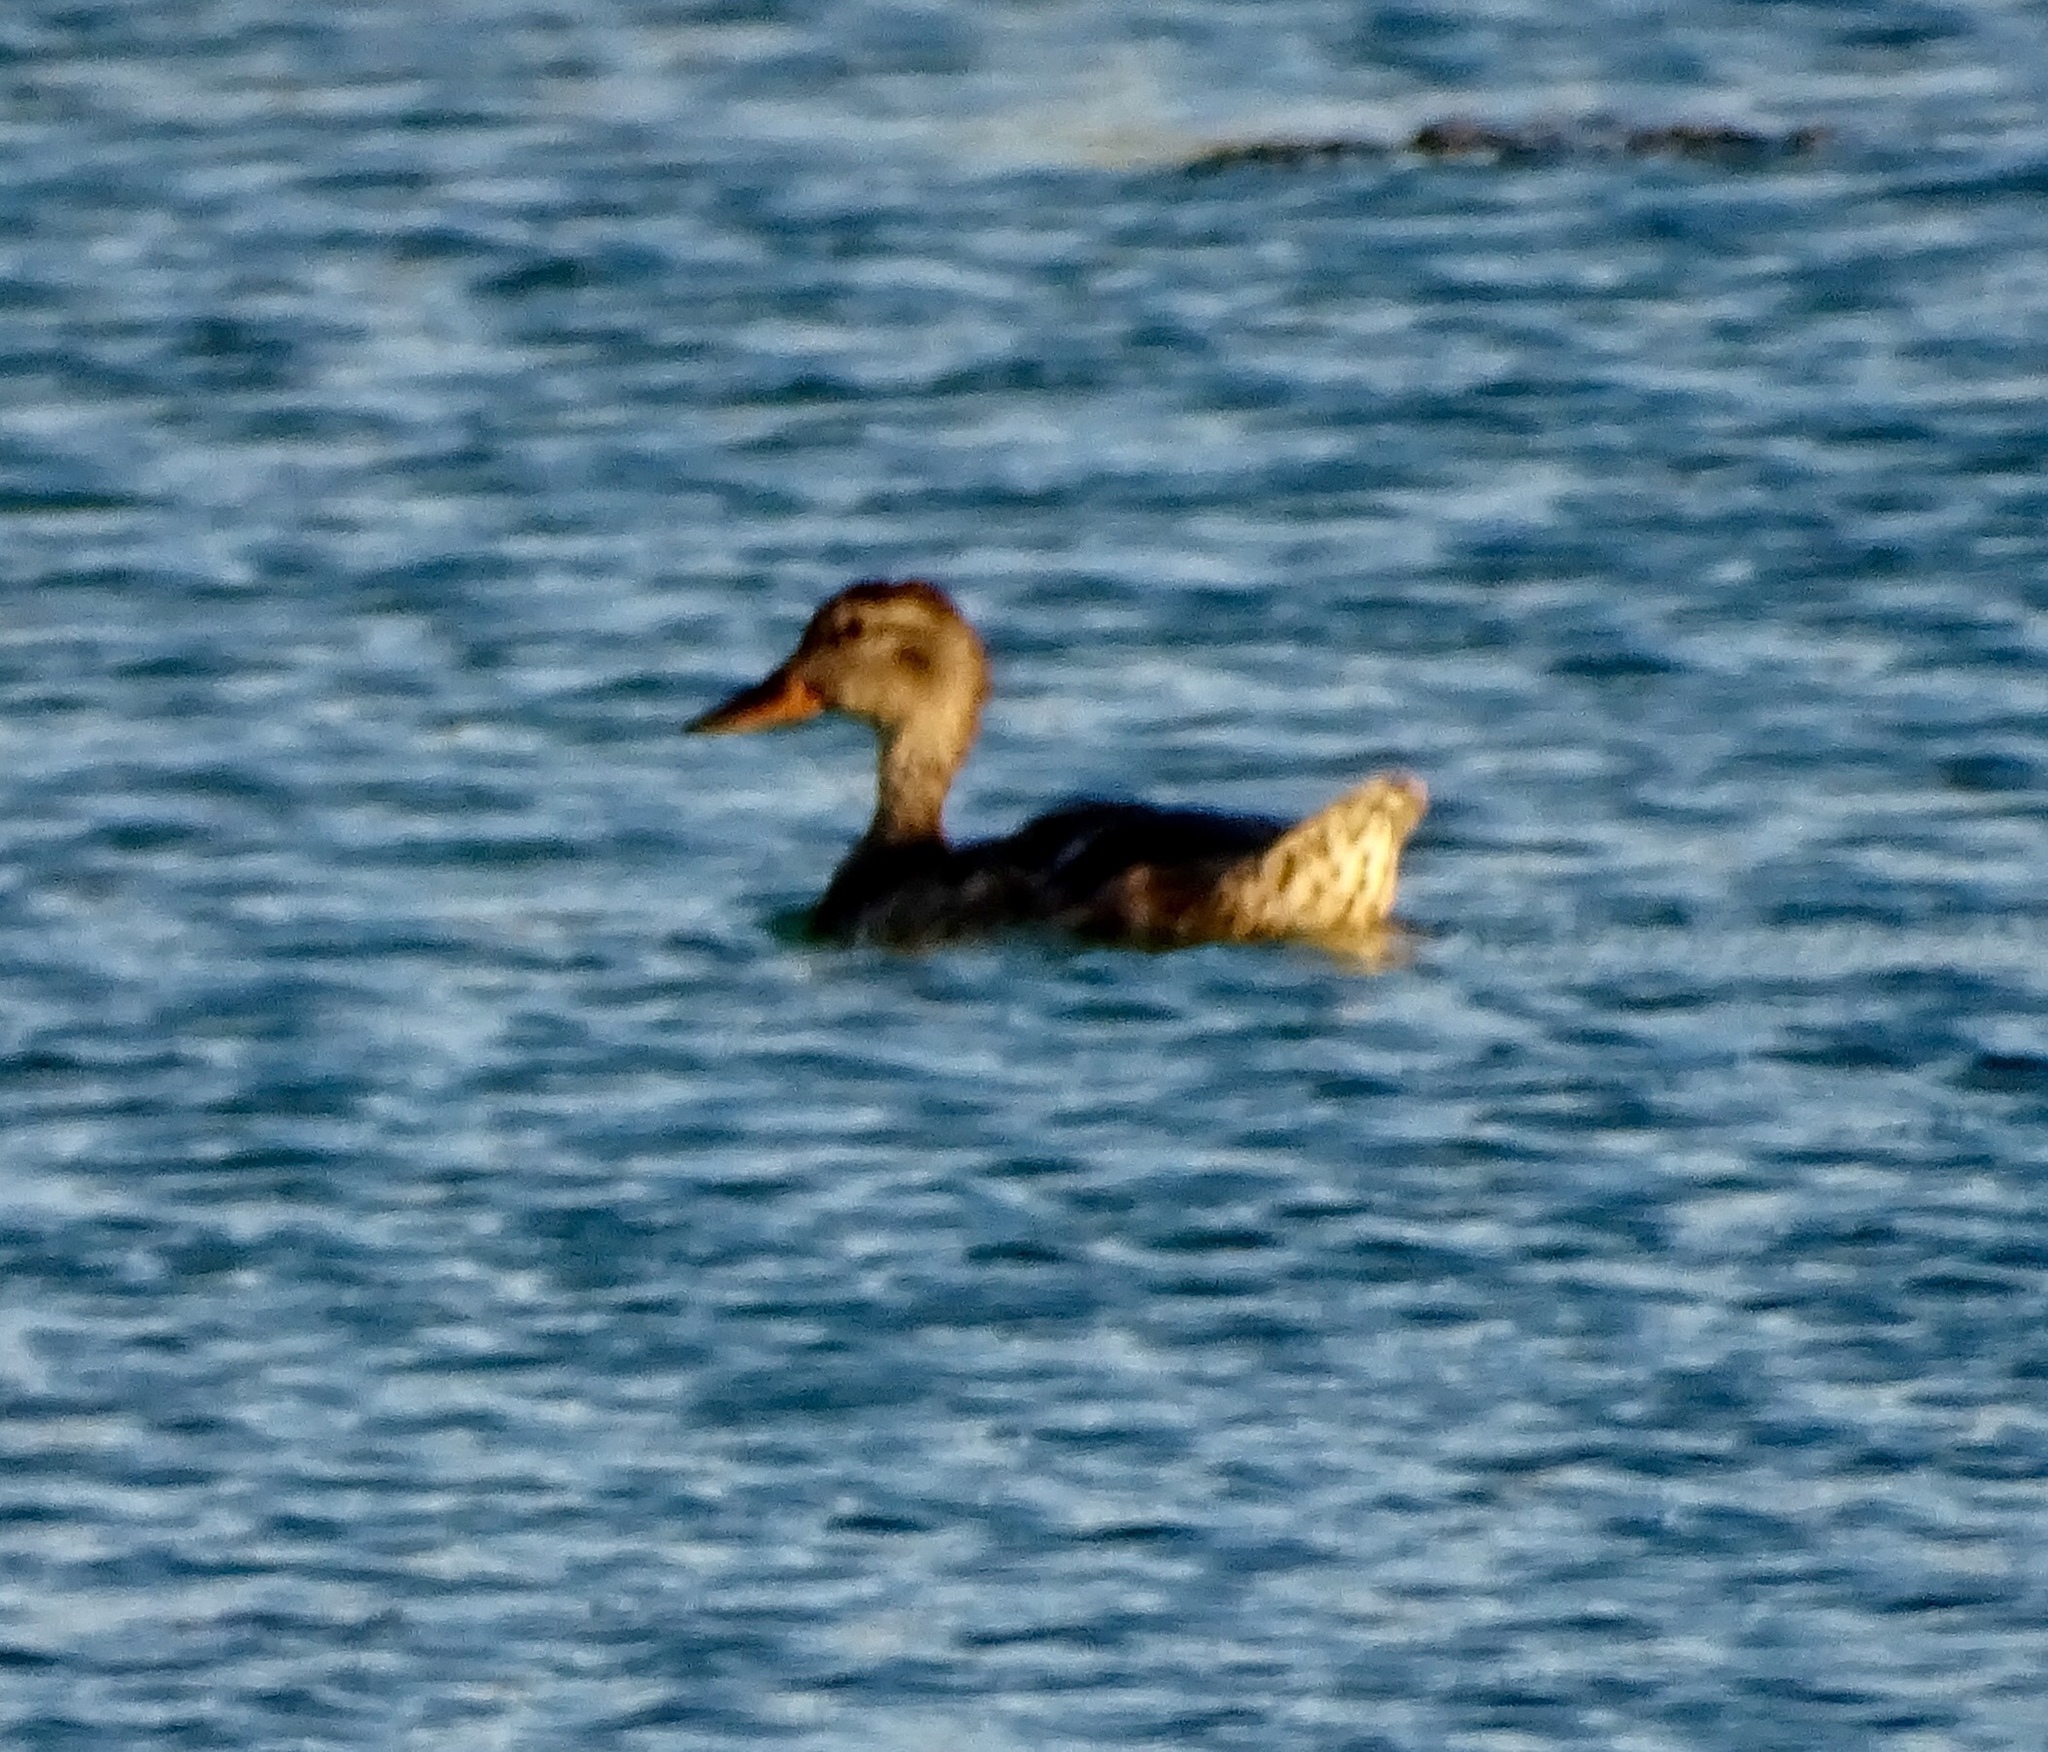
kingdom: Animalia
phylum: Chordata
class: Aves
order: Anseriformes
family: Anatidae
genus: Anas
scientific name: Anas platyrhynchos
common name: Mallard
